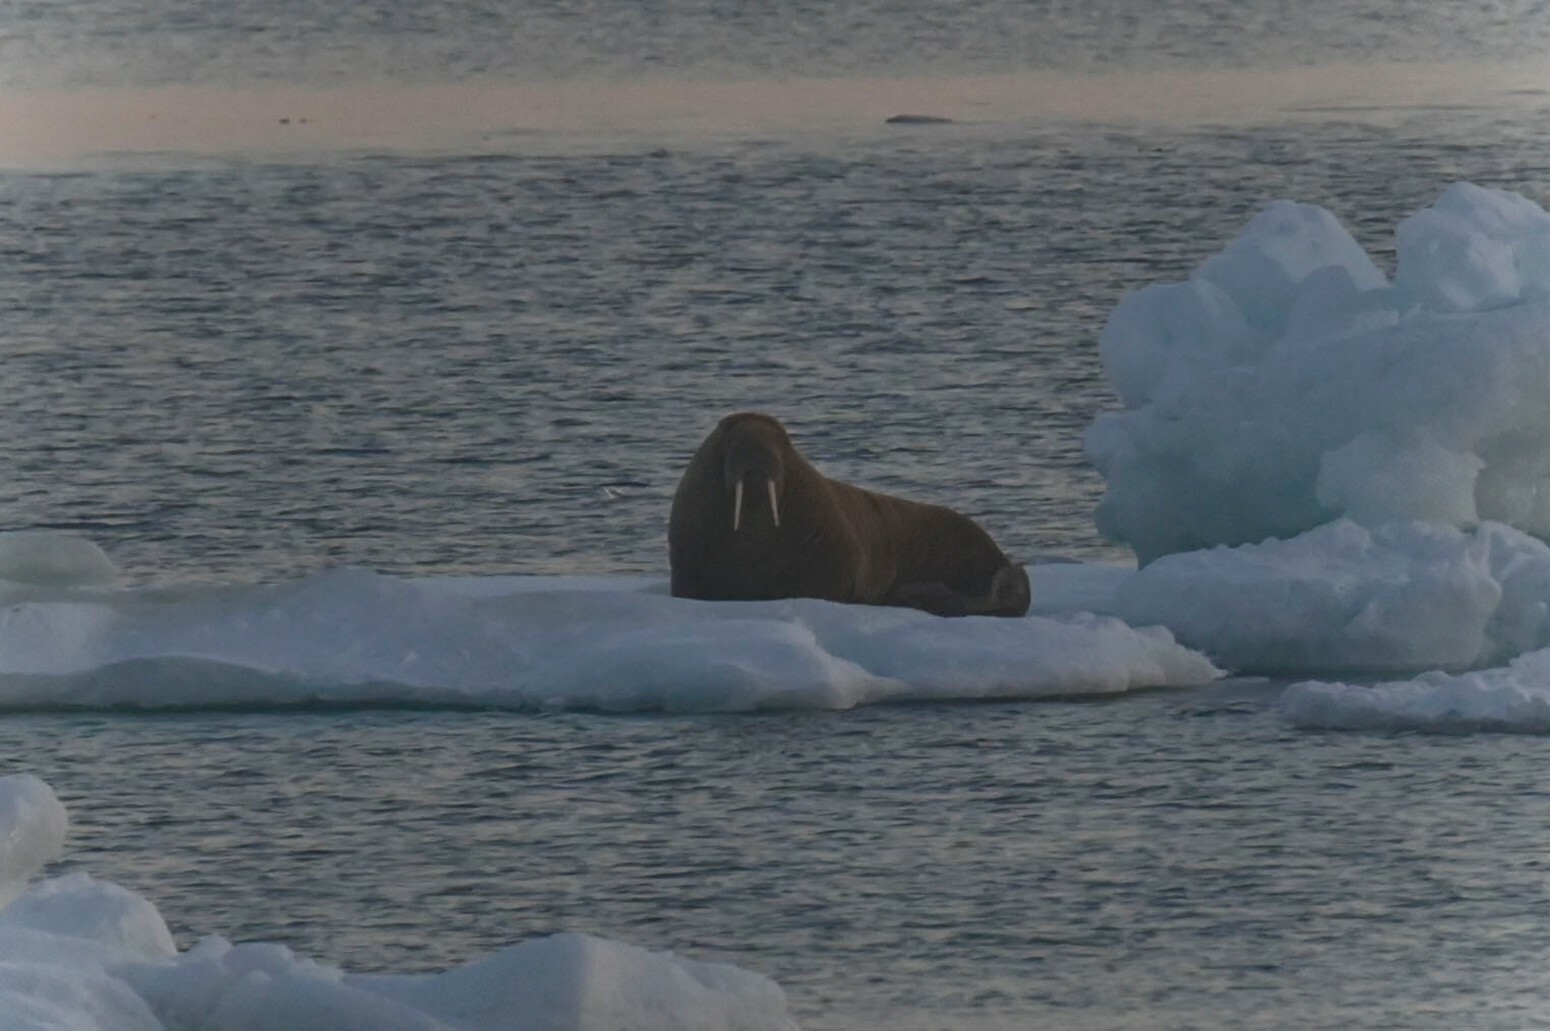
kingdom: Animalia
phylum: Chordata
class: Mammalia
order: Carnivora
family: Odobenidae
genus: Odobenus
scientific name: Odobenus rosmarus
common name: Walrus
